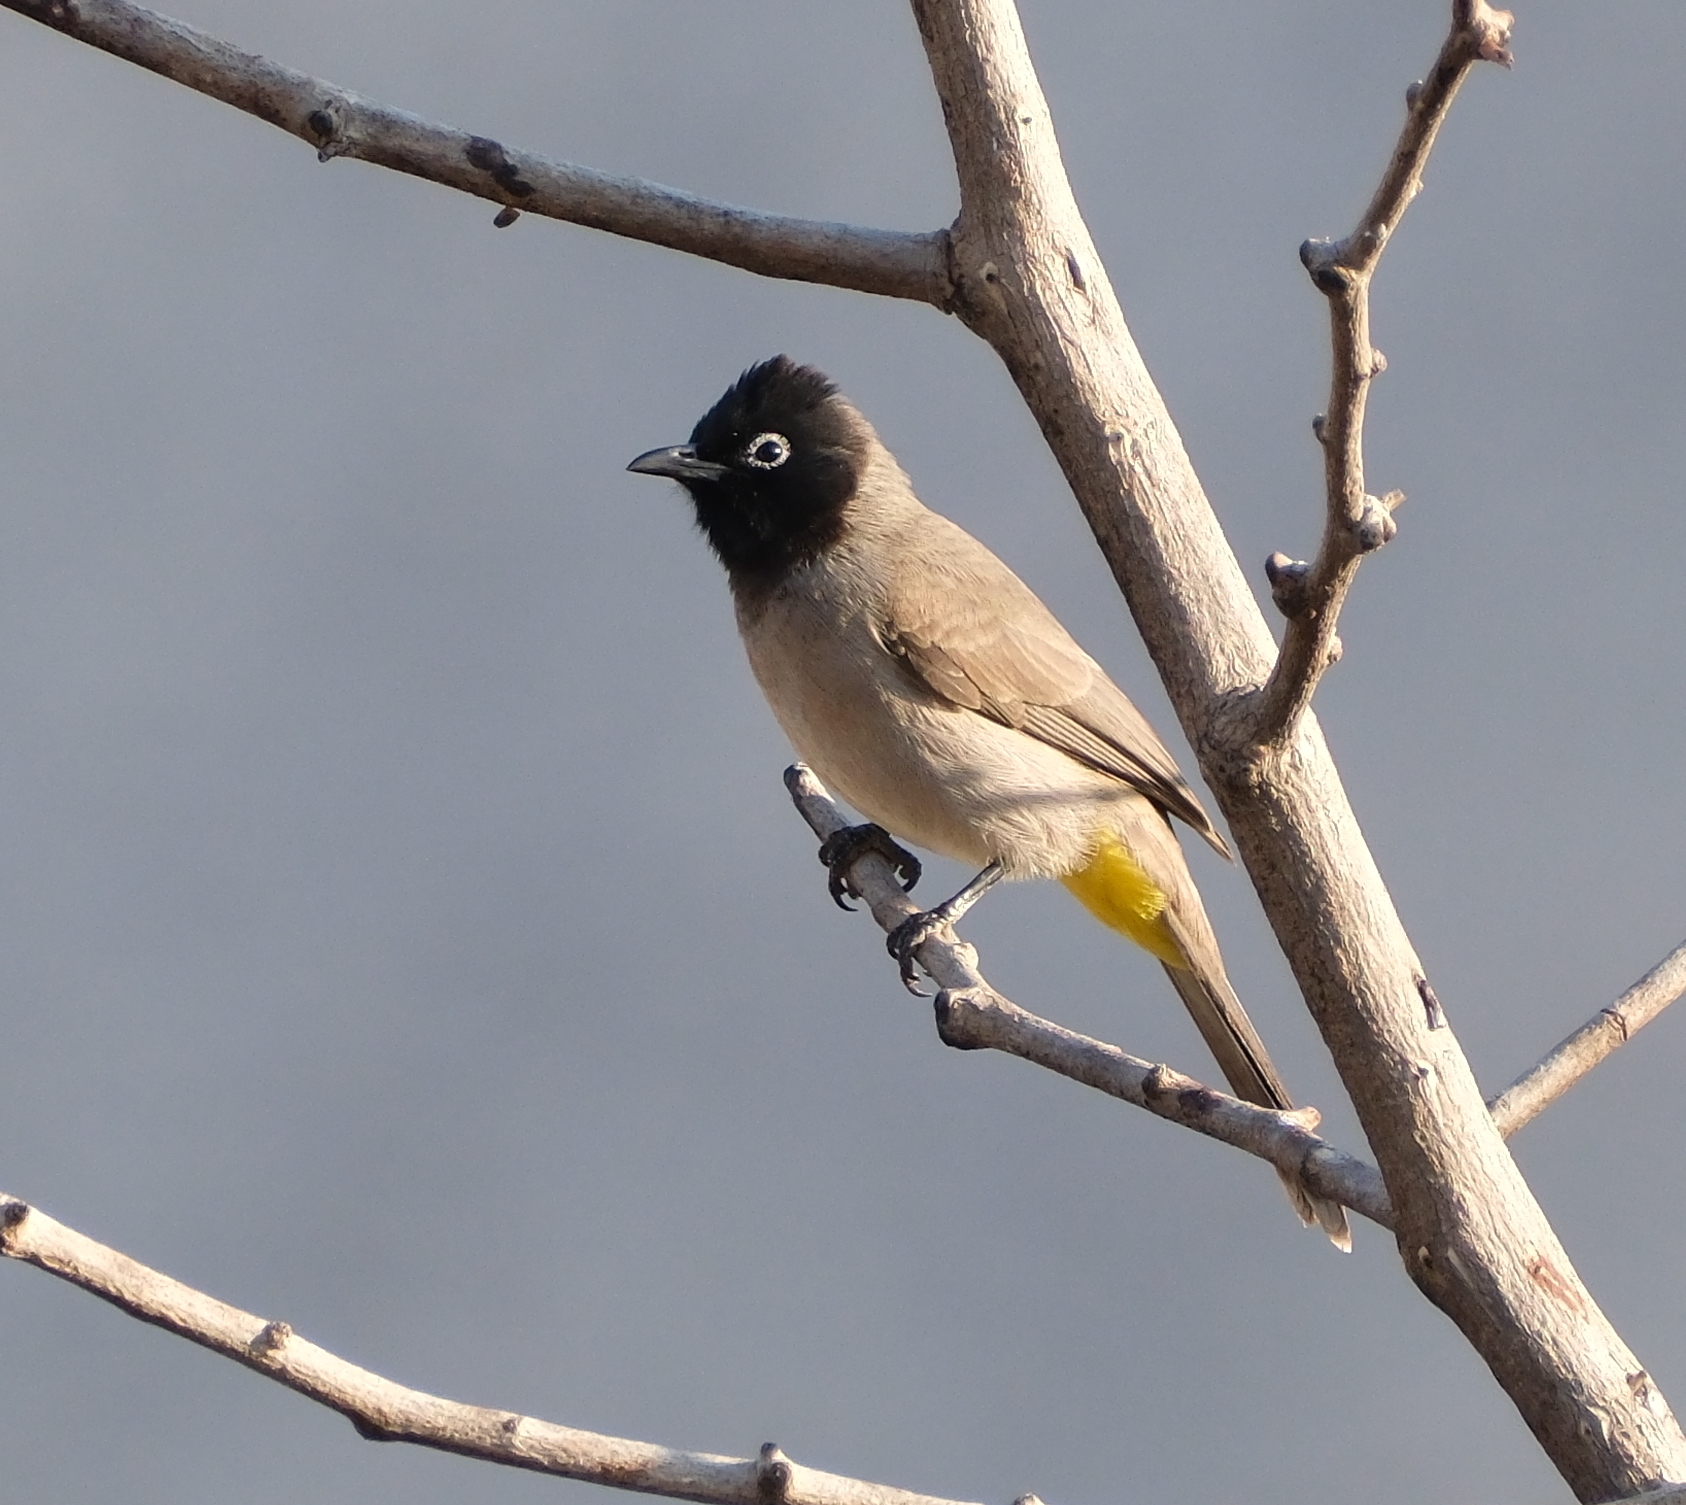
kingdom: Animalia
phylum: Chordata
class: Aves
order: Passeriformes
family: Pycnonotidae
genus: Pycnonotus
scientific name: Pycnonotus xanthopygos
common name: White-spectacled bulbul
